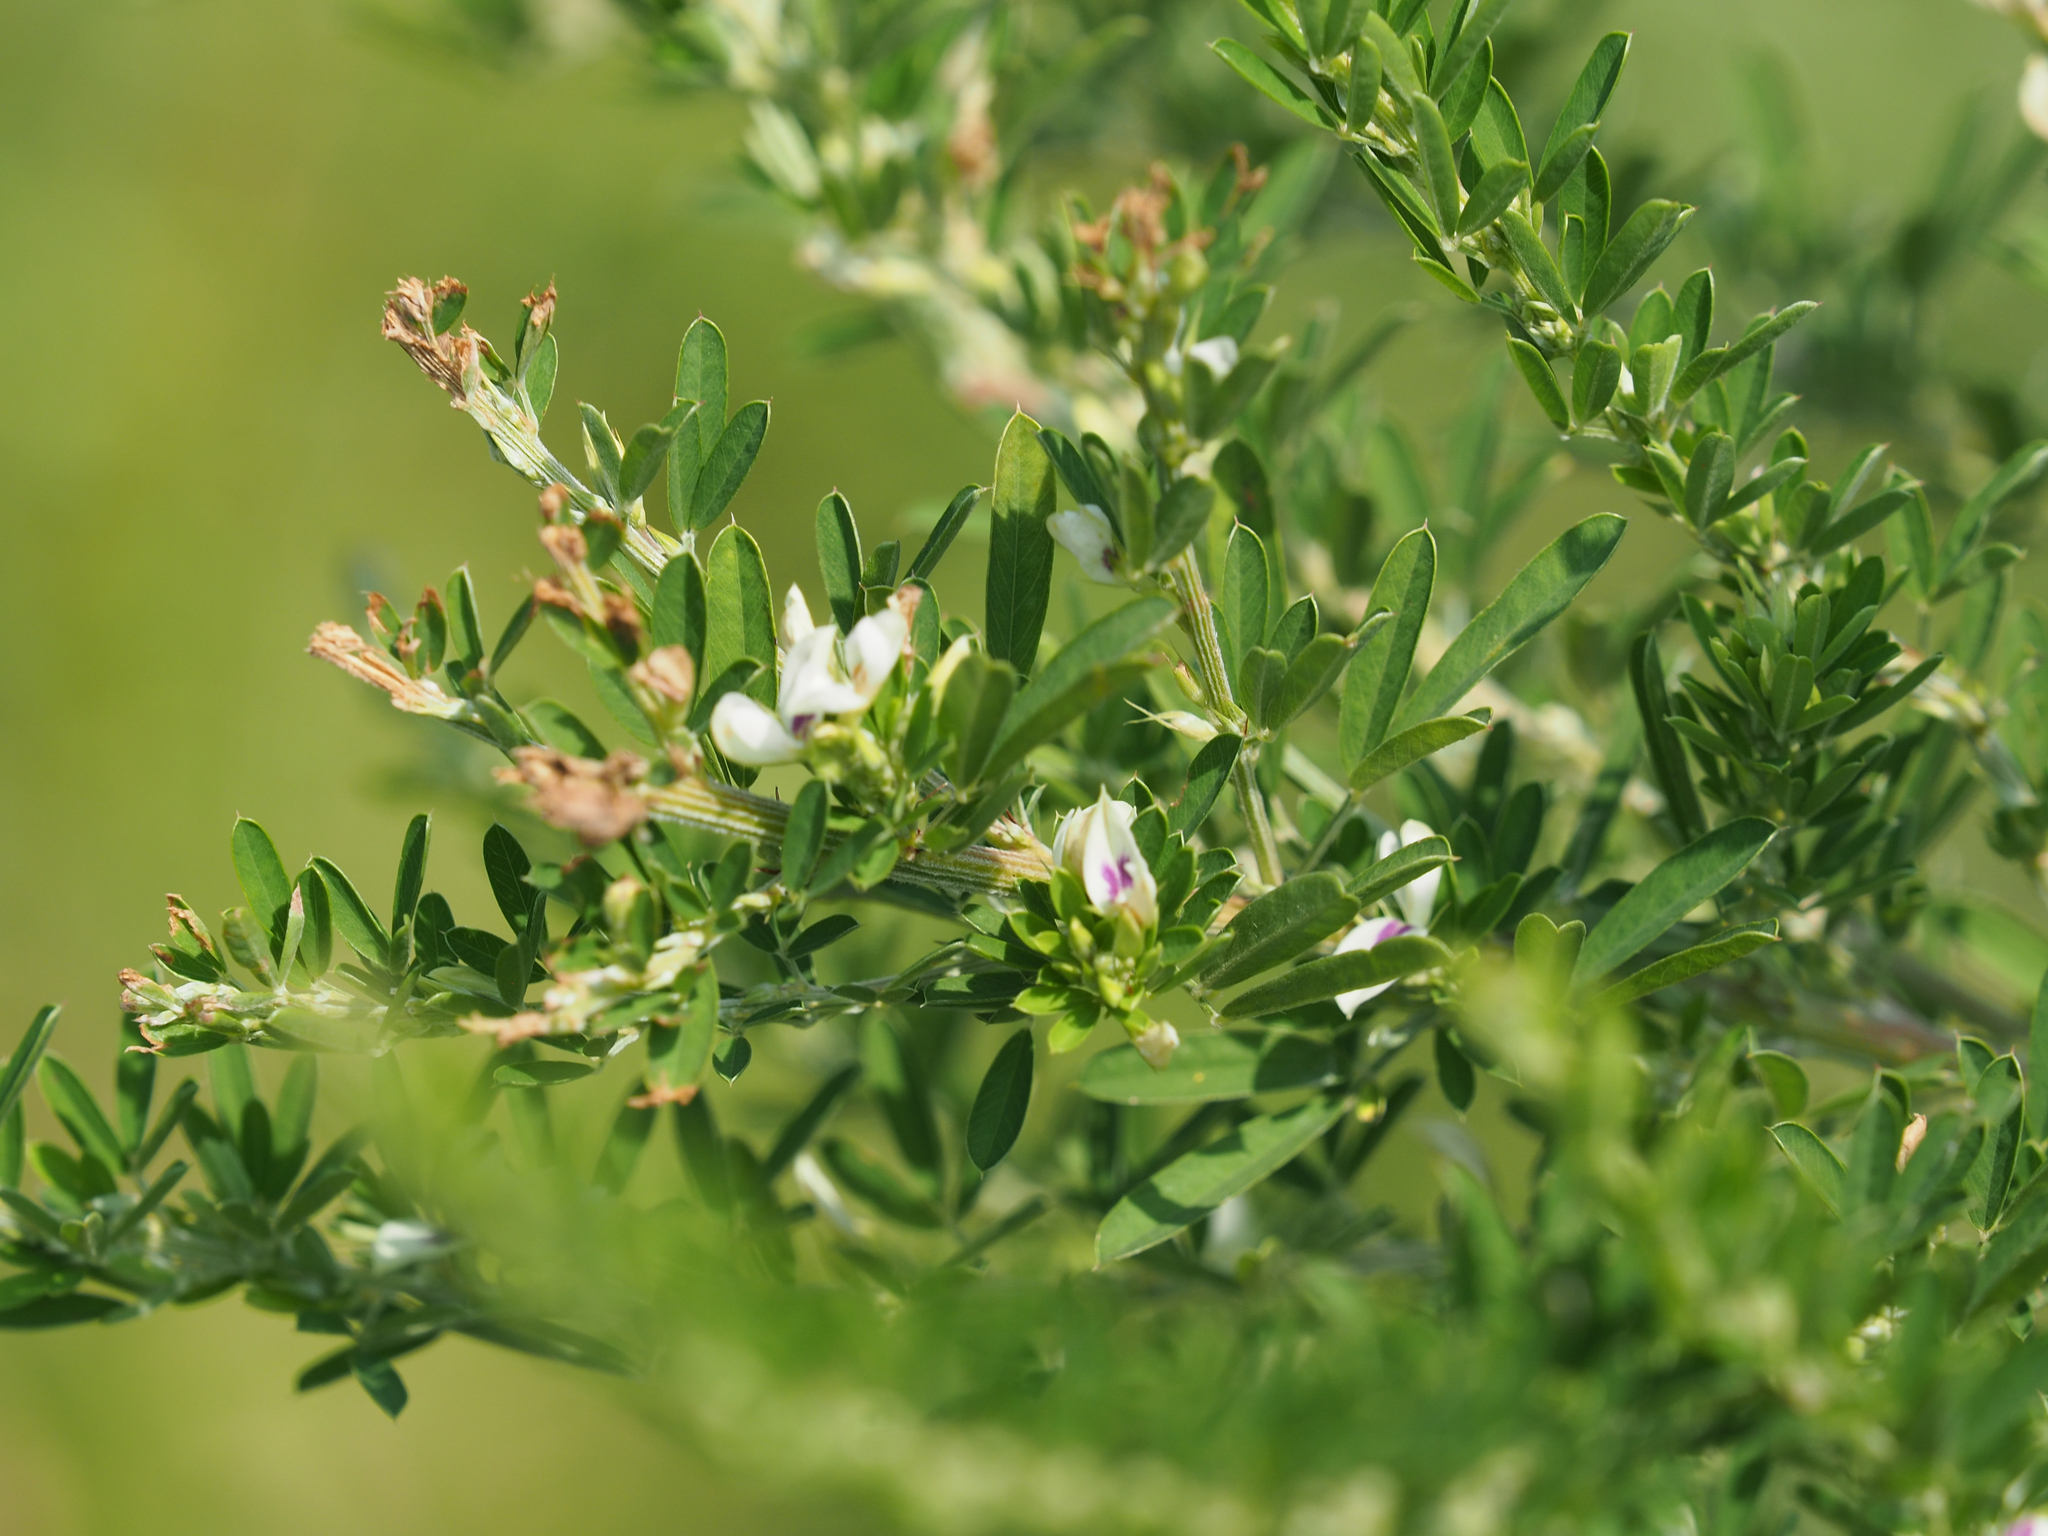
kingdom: Plantae
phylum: Tracheophyta
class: Magnoliopsida
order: Fabales
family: Fabaceae
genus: Lespedeza
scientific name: Lespedeza cuneata
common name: Chinese bush-clover
